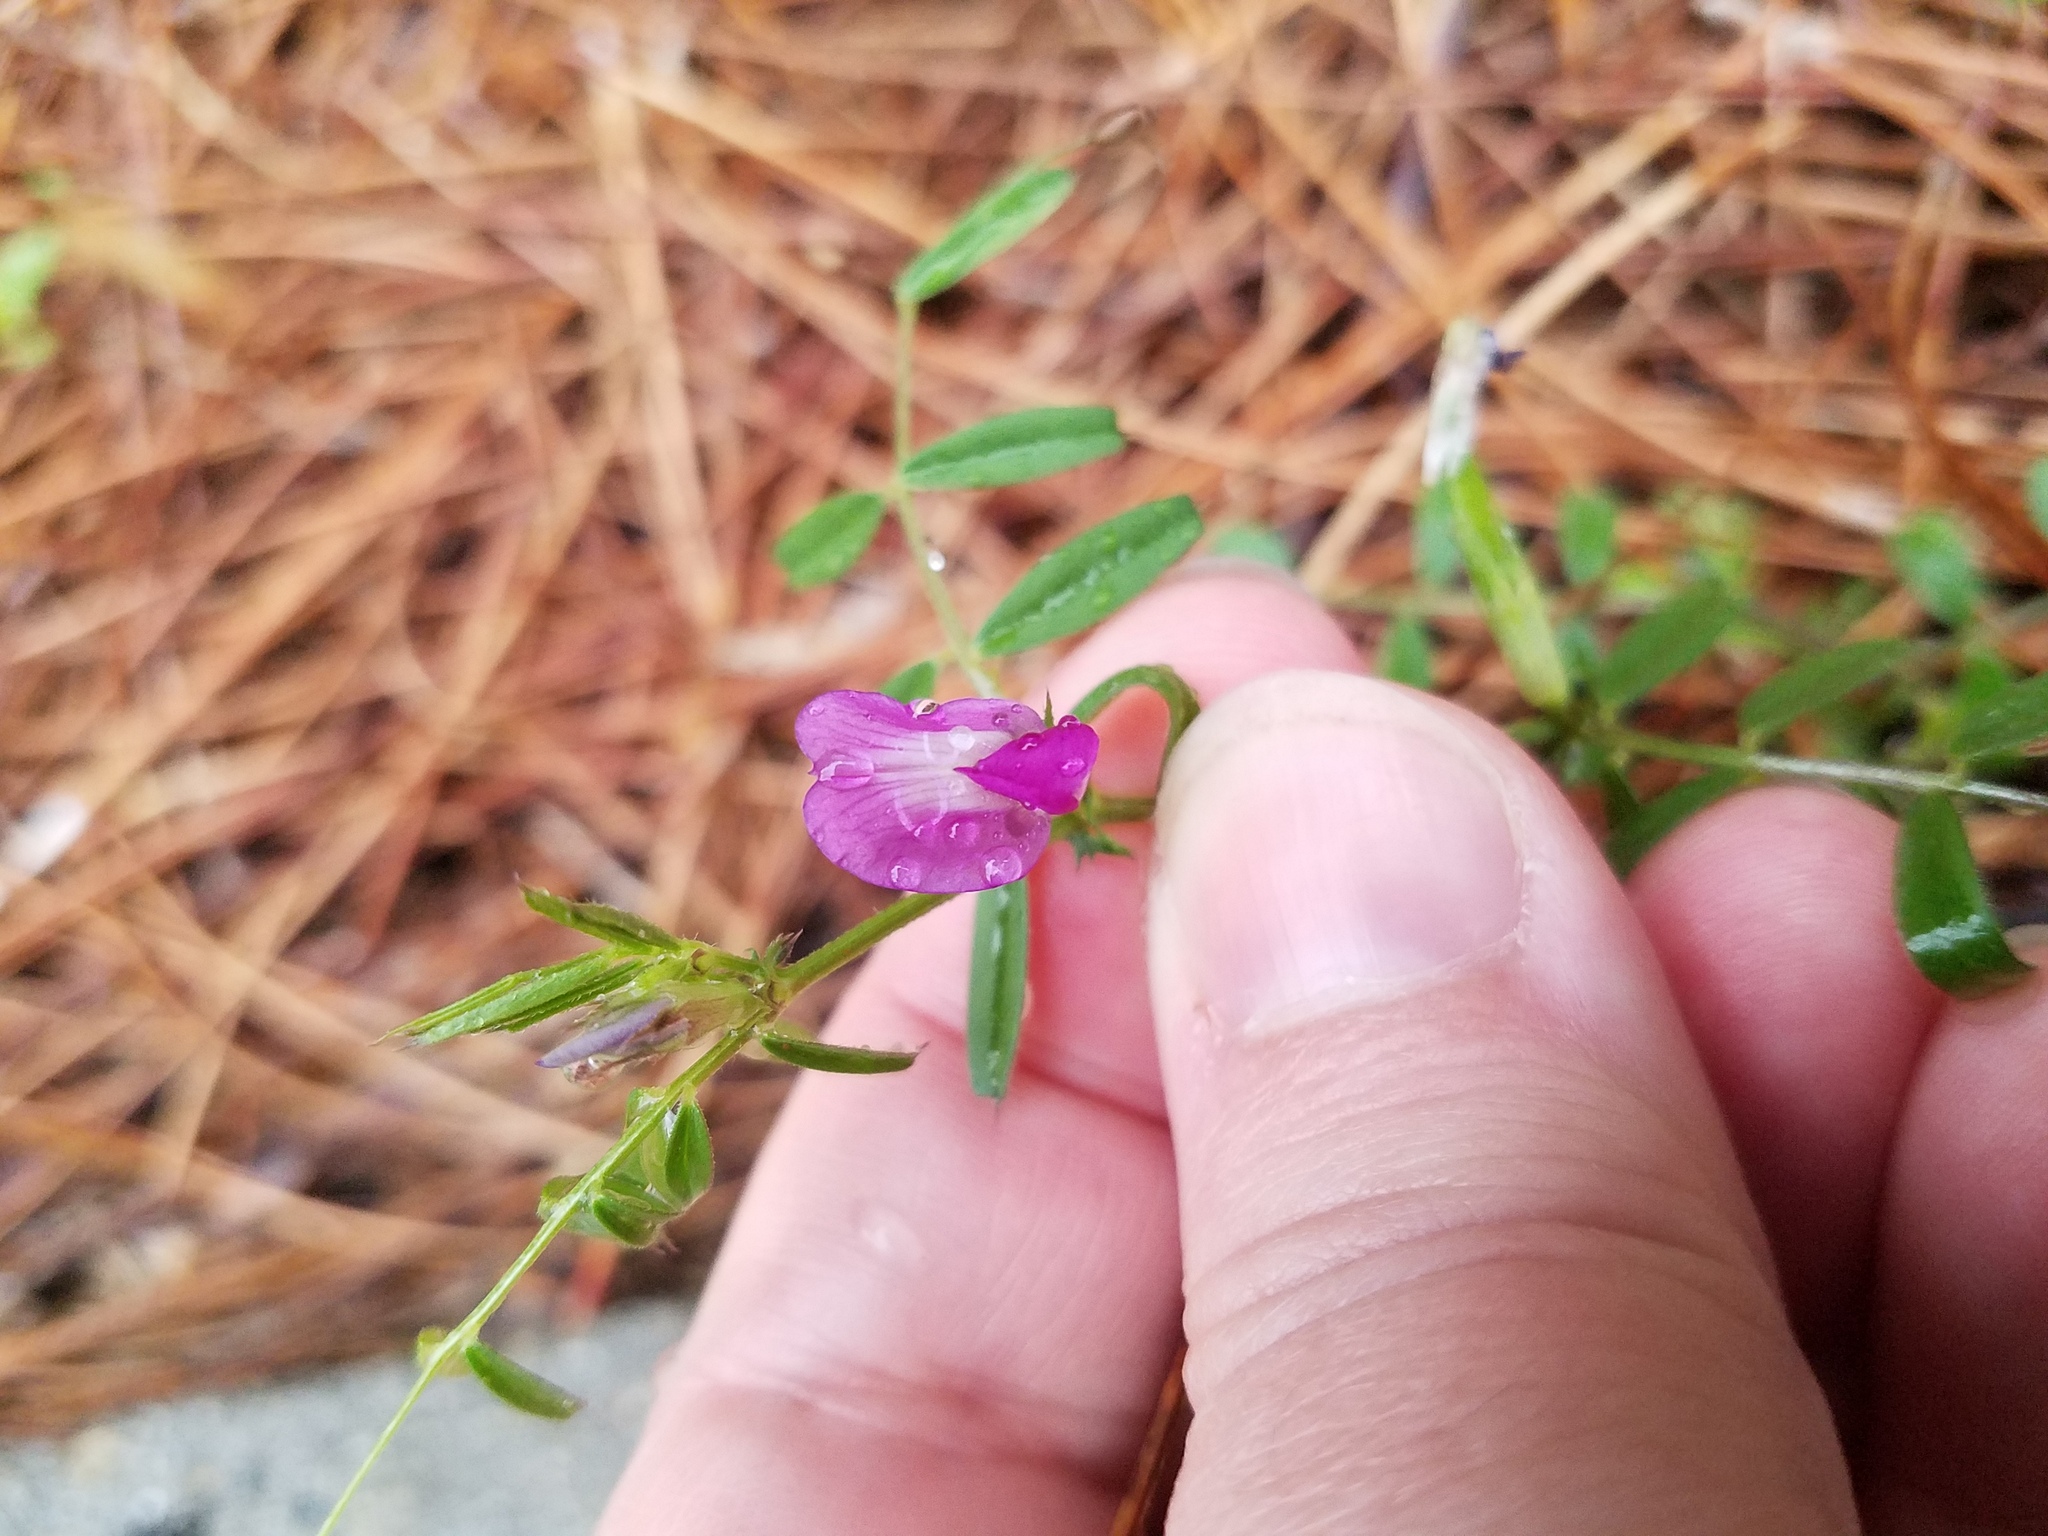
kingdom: Plantae
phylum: Tracheophyta
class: Magnoliopsida
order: Fabales
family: Fabaceae
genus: Vicia
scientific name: Vicia sativa
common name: Garden vetch
